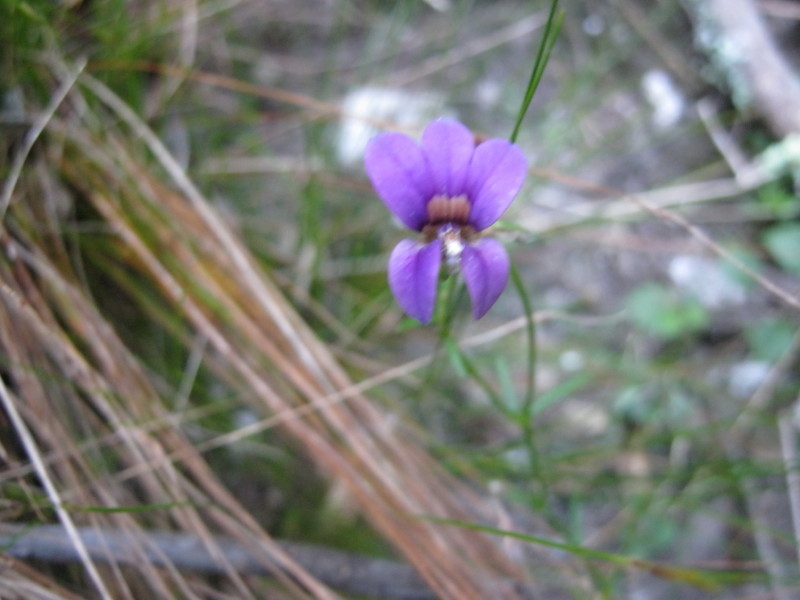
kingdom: Plantae
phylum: Tracheophyta
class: Magnoliopsida
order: Asterales
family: Campanulaceae
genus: Monopsis
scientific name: Monopsis unidentata
